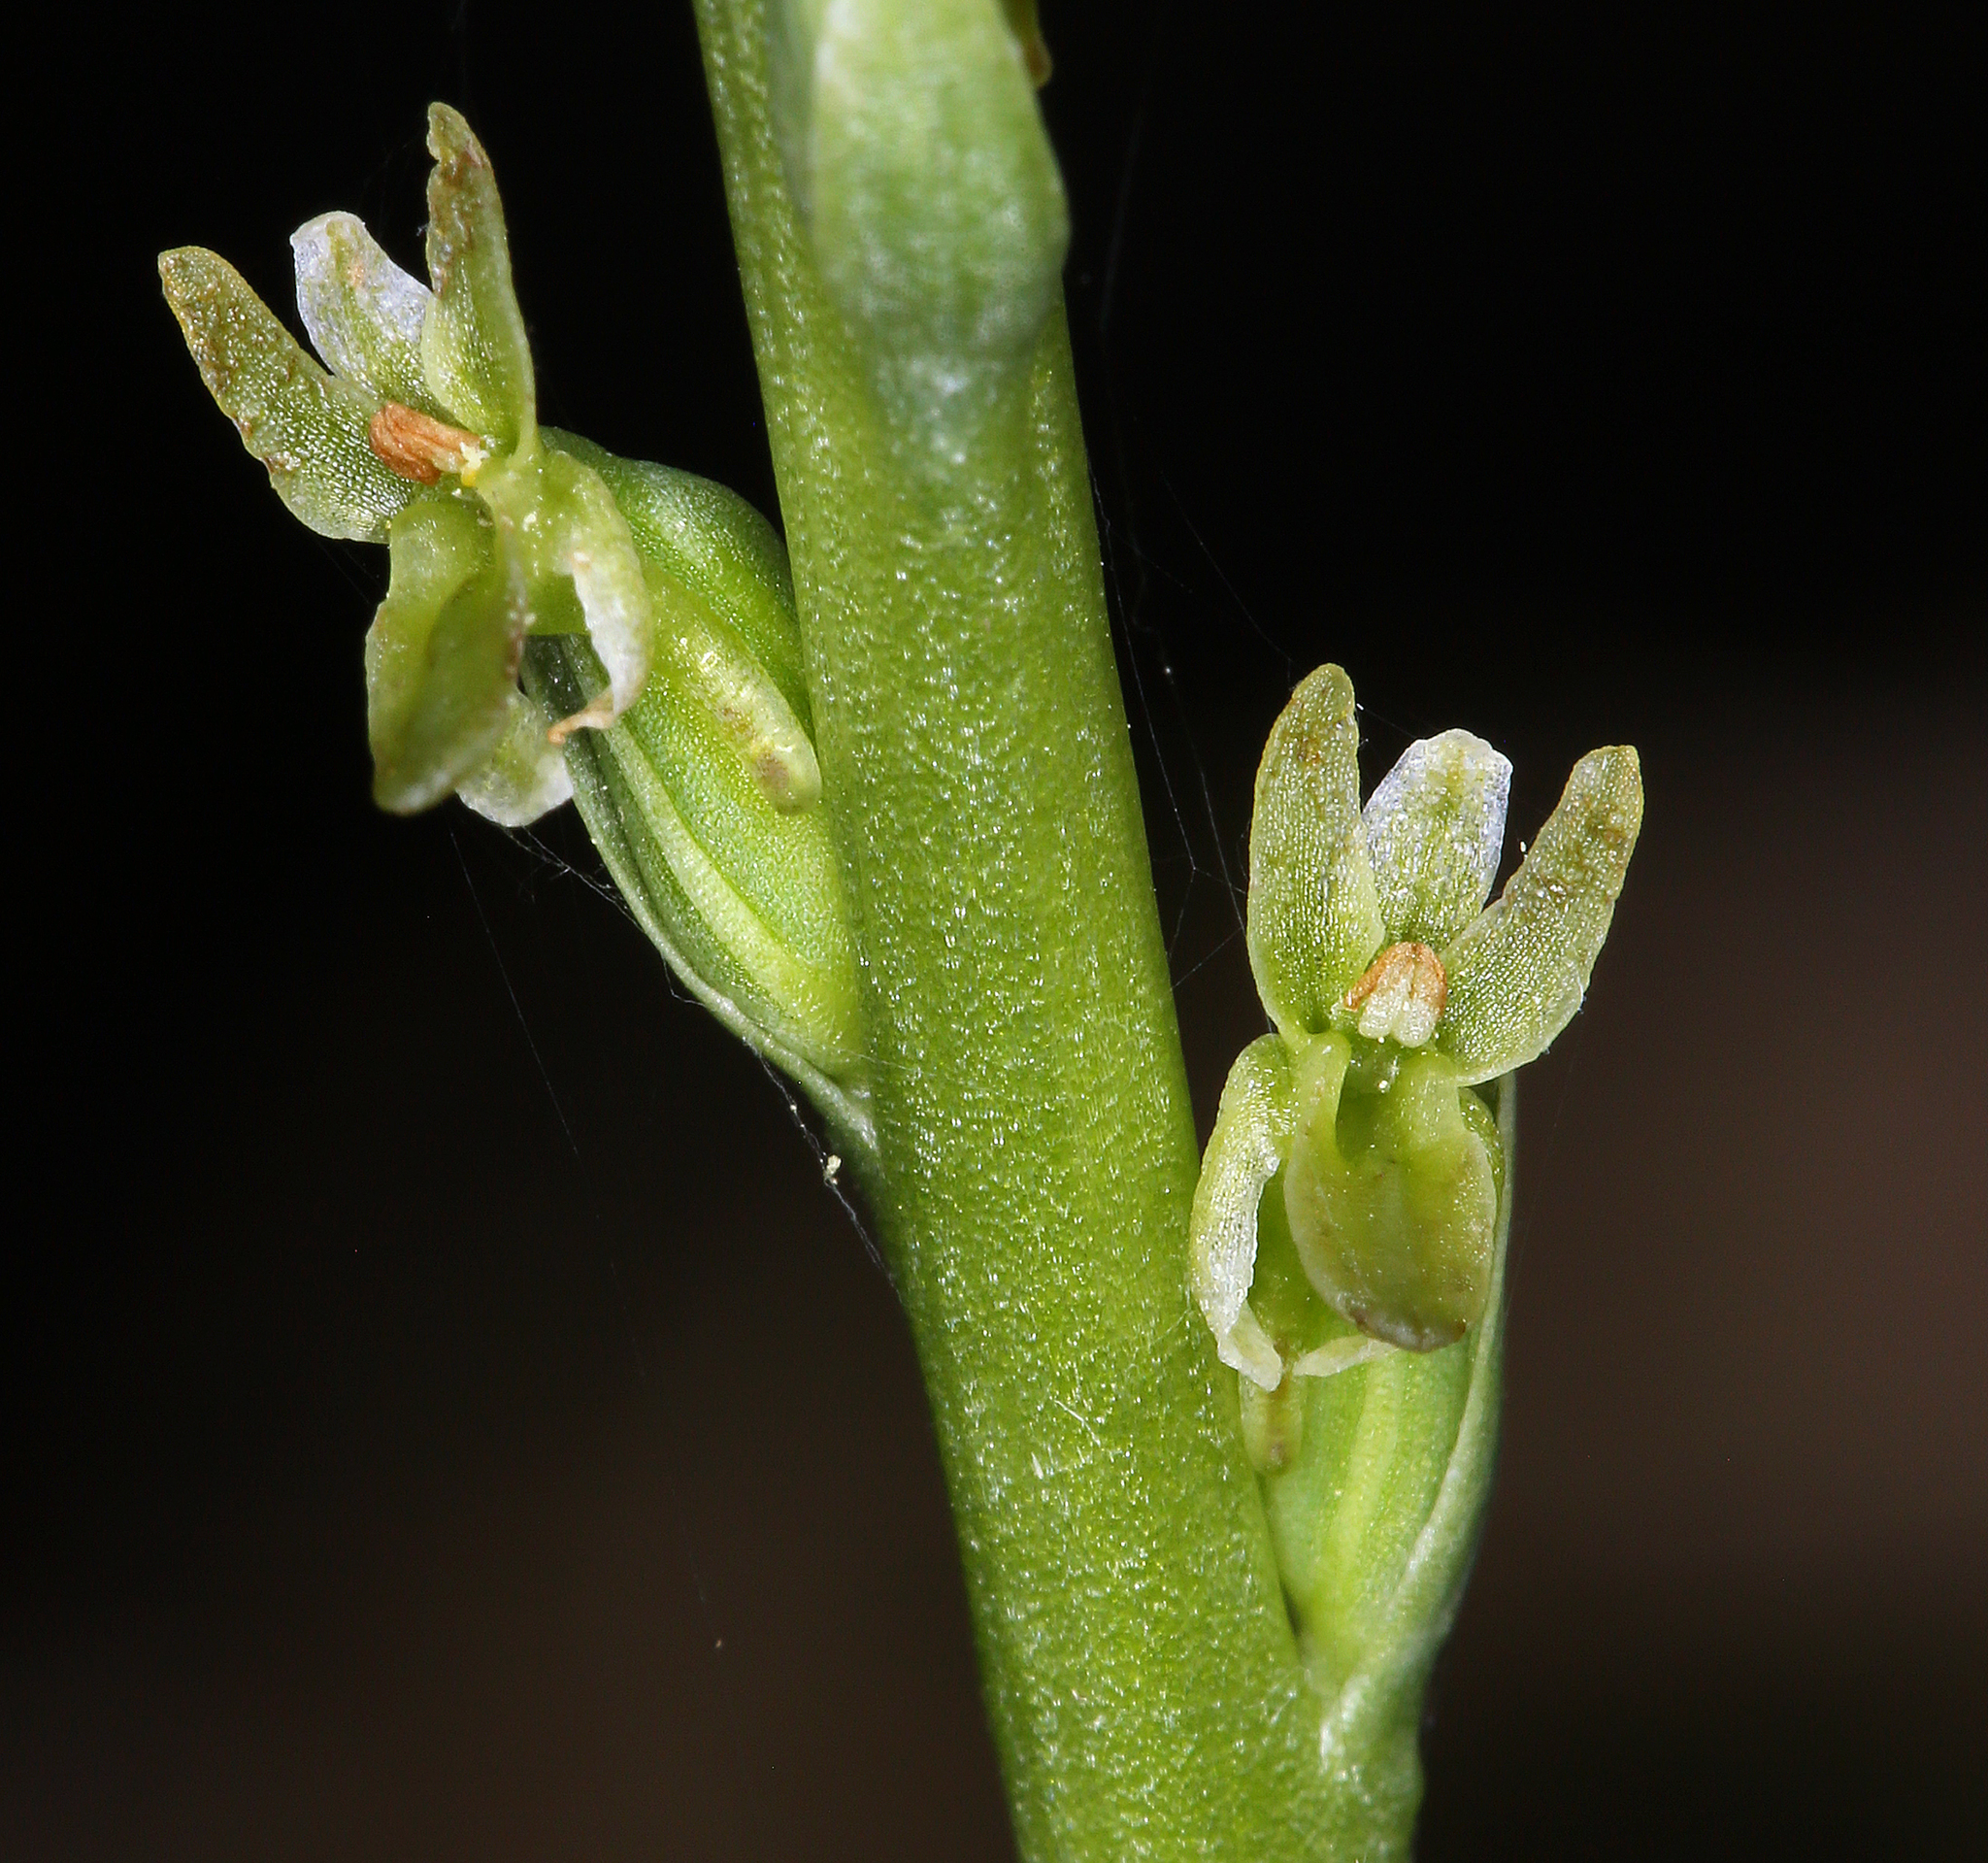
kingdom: Plantae
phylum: Tracheophyta
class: Liliopsida
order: Asparagales
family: Orchidaceae
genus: Platanthera
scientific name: Platanthera unalascensis
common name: Alaska bog orchid
